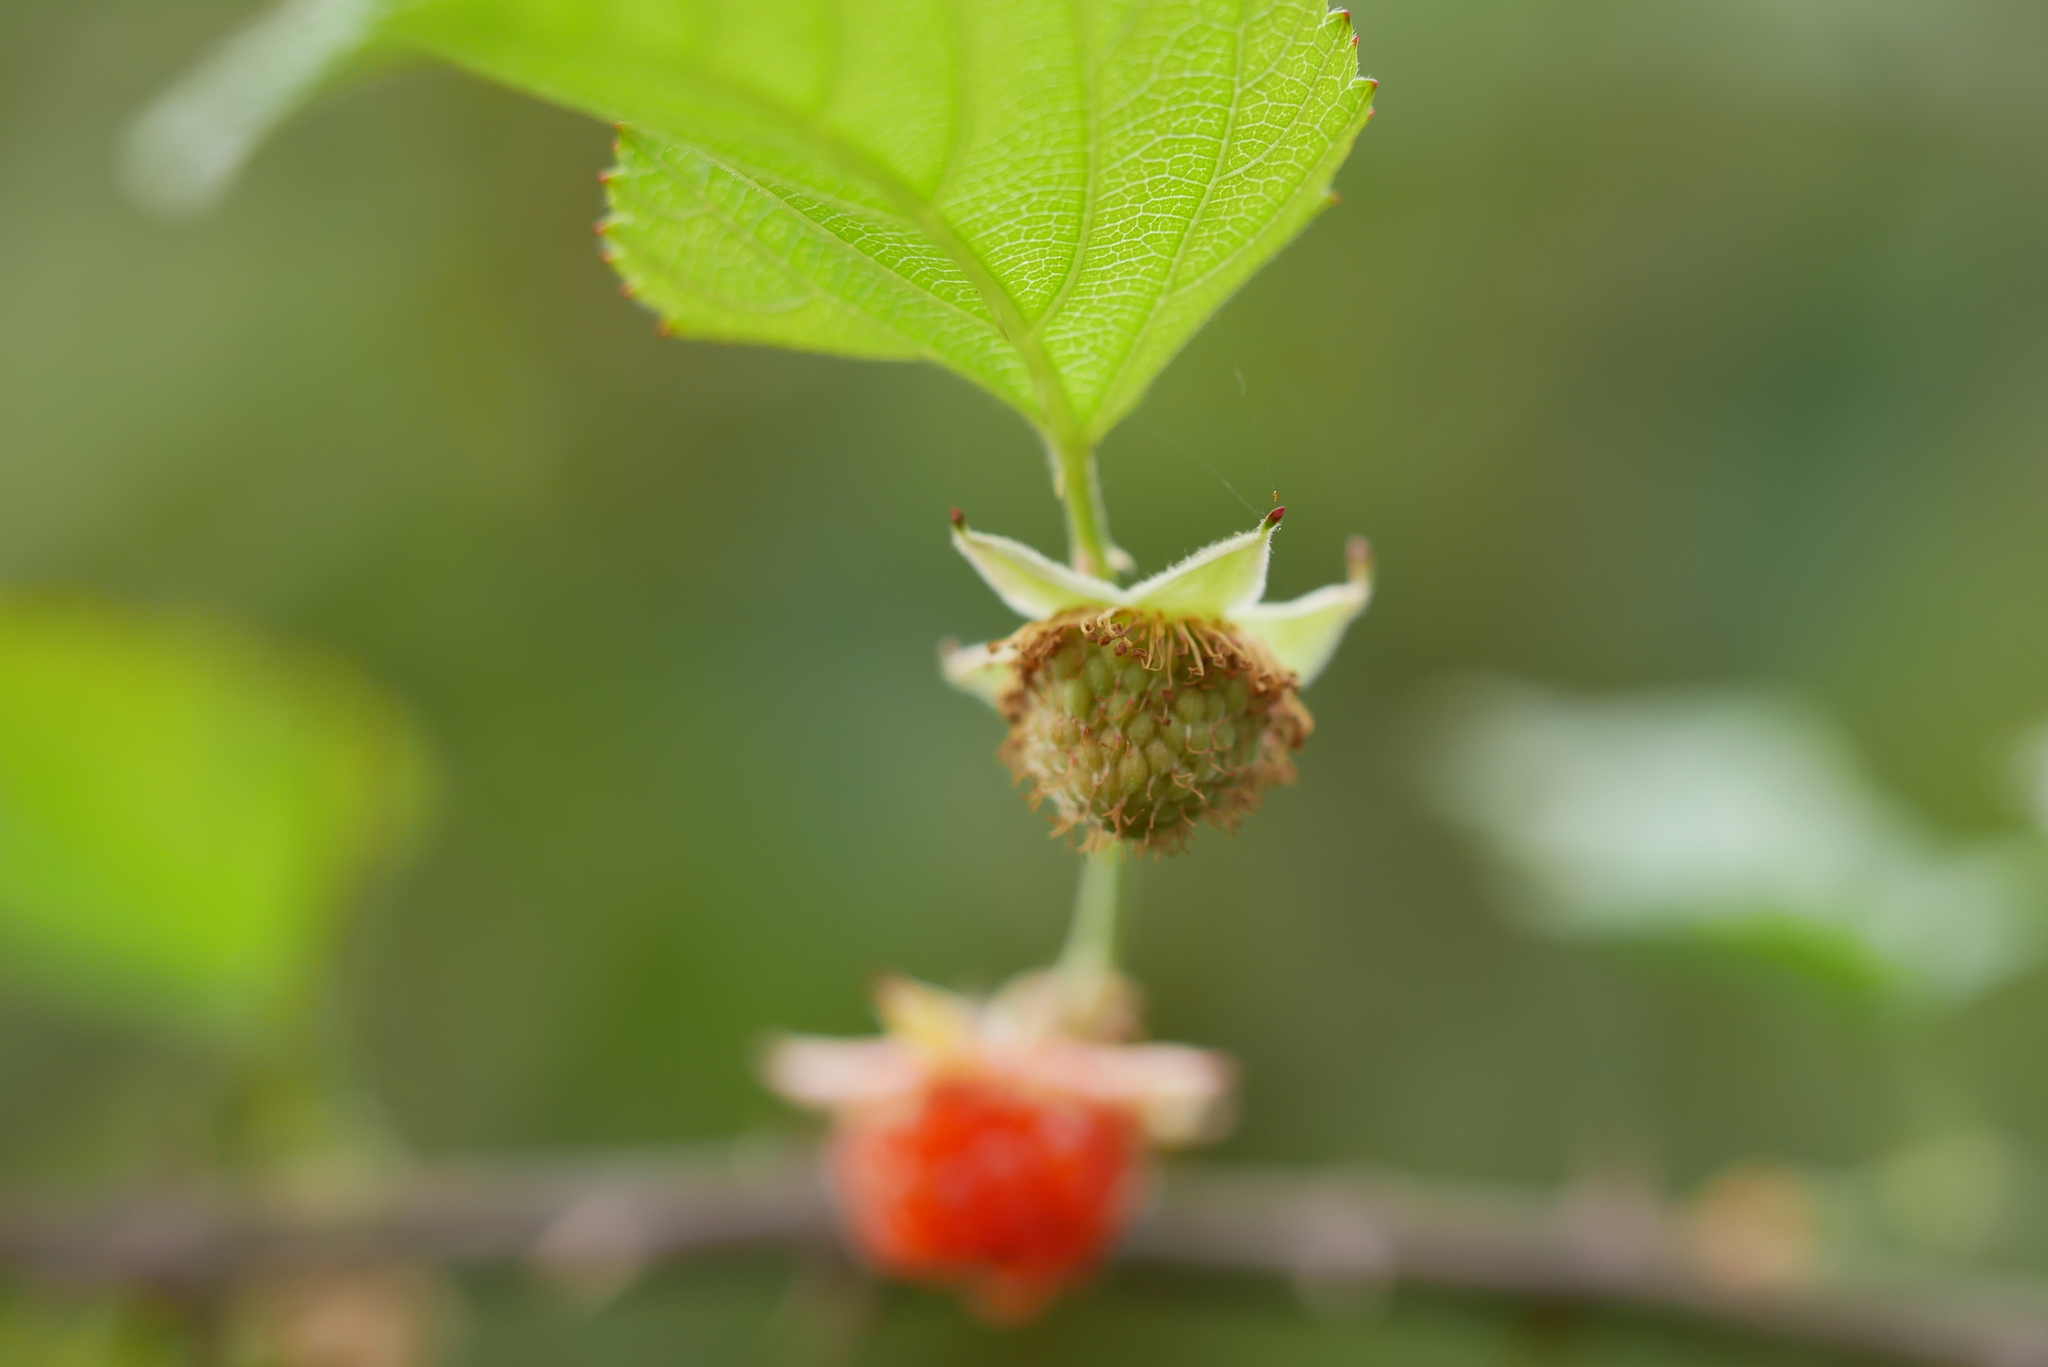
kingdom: Plantae
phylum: Tracheophyta
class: Magnoliopsida
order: Rosales
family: Rosaceae
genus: Rubus
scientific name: Rubus corchorifolius
